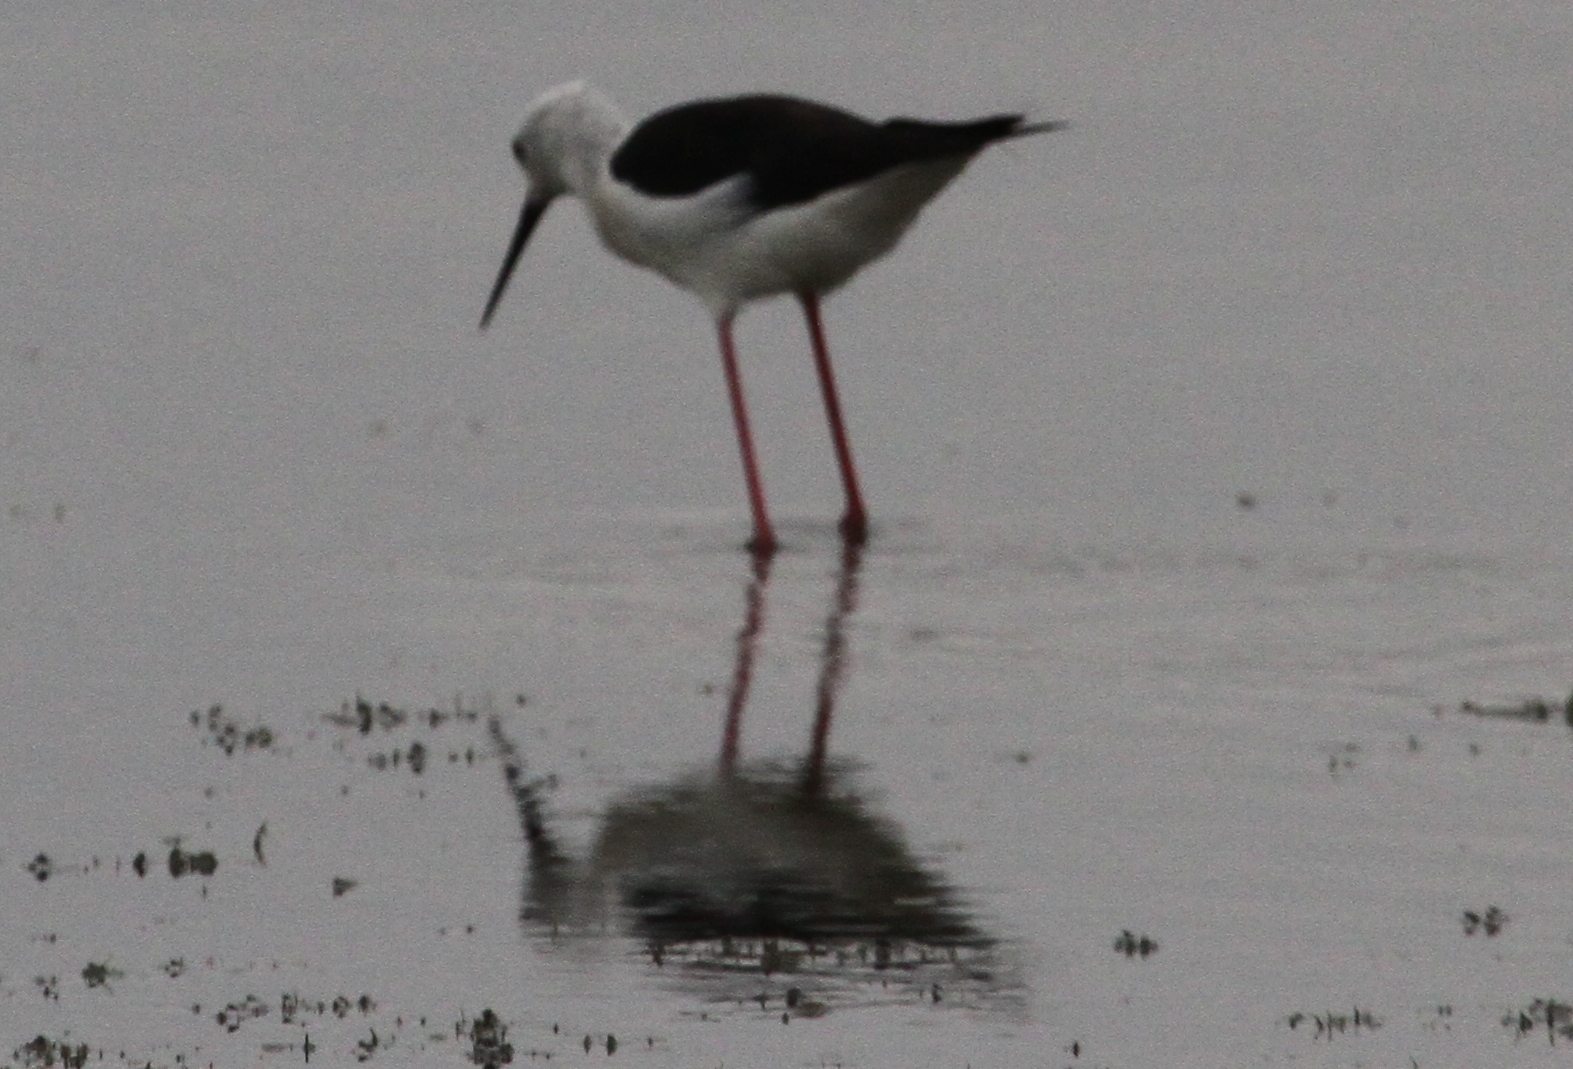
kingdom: Animalia
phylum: Chordata
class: Aves
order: Charadriiformes
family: Recurvirostridae
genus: Himantopus
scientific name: Himantopus himantopus
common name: Black-winged stilt
